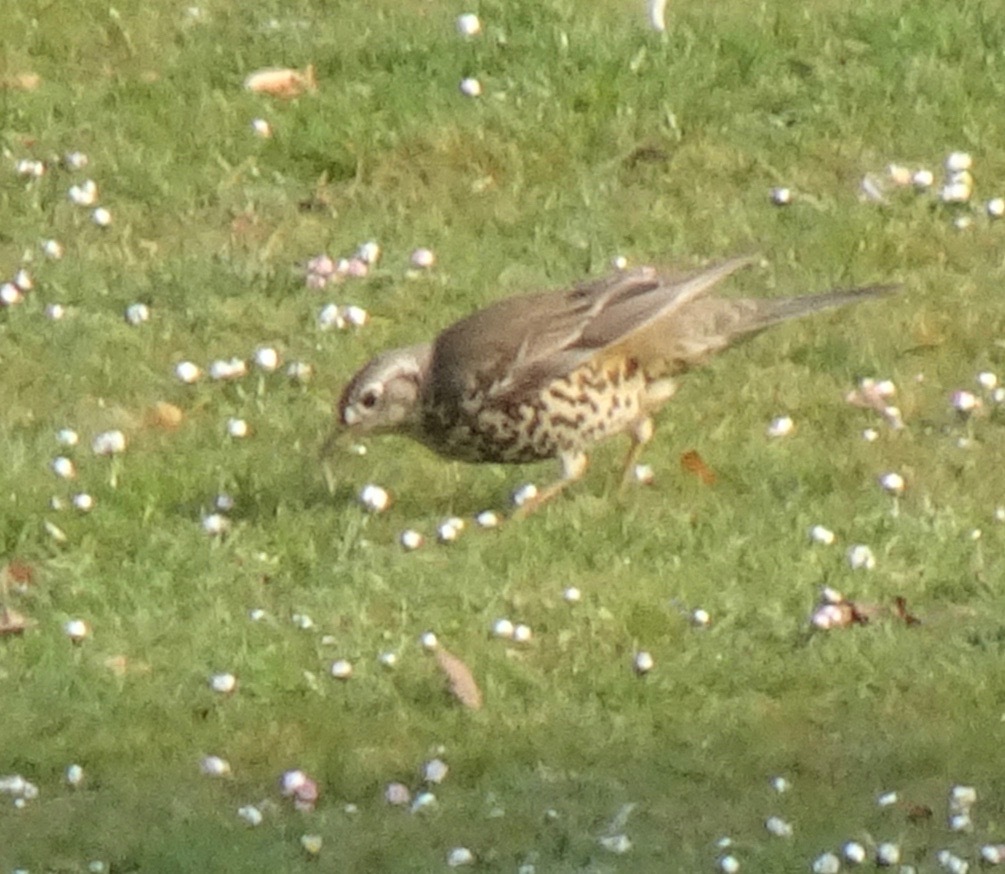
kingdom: Animalia
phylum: Chordata
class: Aves
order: Passeriformes
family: Turdidae
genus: Turdus
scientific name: Turdus viscivorus
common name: Mistle thrush
